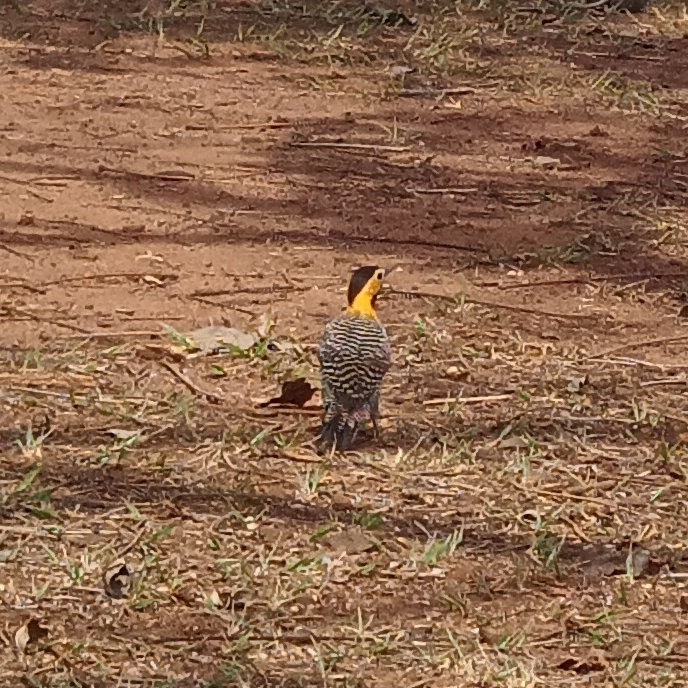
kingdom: Animalia
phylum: Chordata
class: Aves
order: Piciformes
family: Picidae
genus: Colaptes
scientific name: Colaptes campestris
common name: Campo flicker
